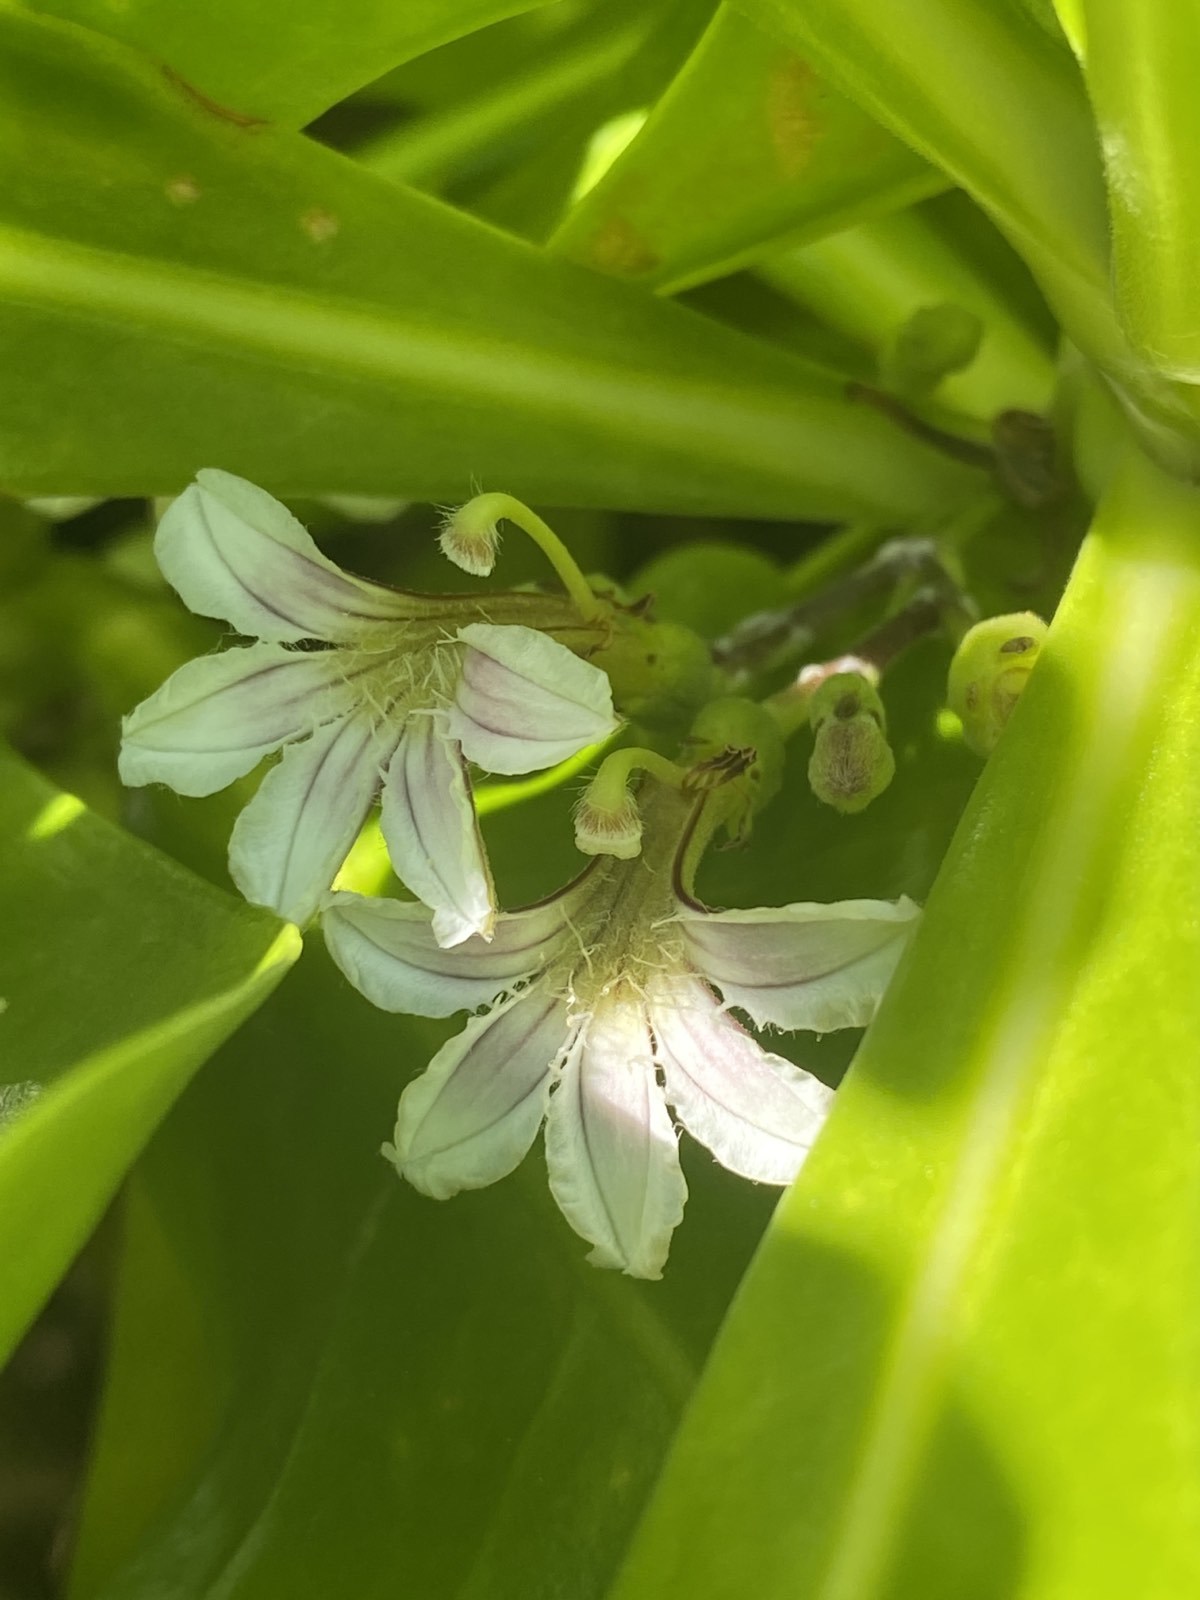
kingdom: Plantae
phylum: Tracheophyta
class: Magnoliopsida
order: Asterales
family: Goodeniaceae
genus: Scaevola
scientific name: Scaevola taccada
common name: Sea lettucetree
